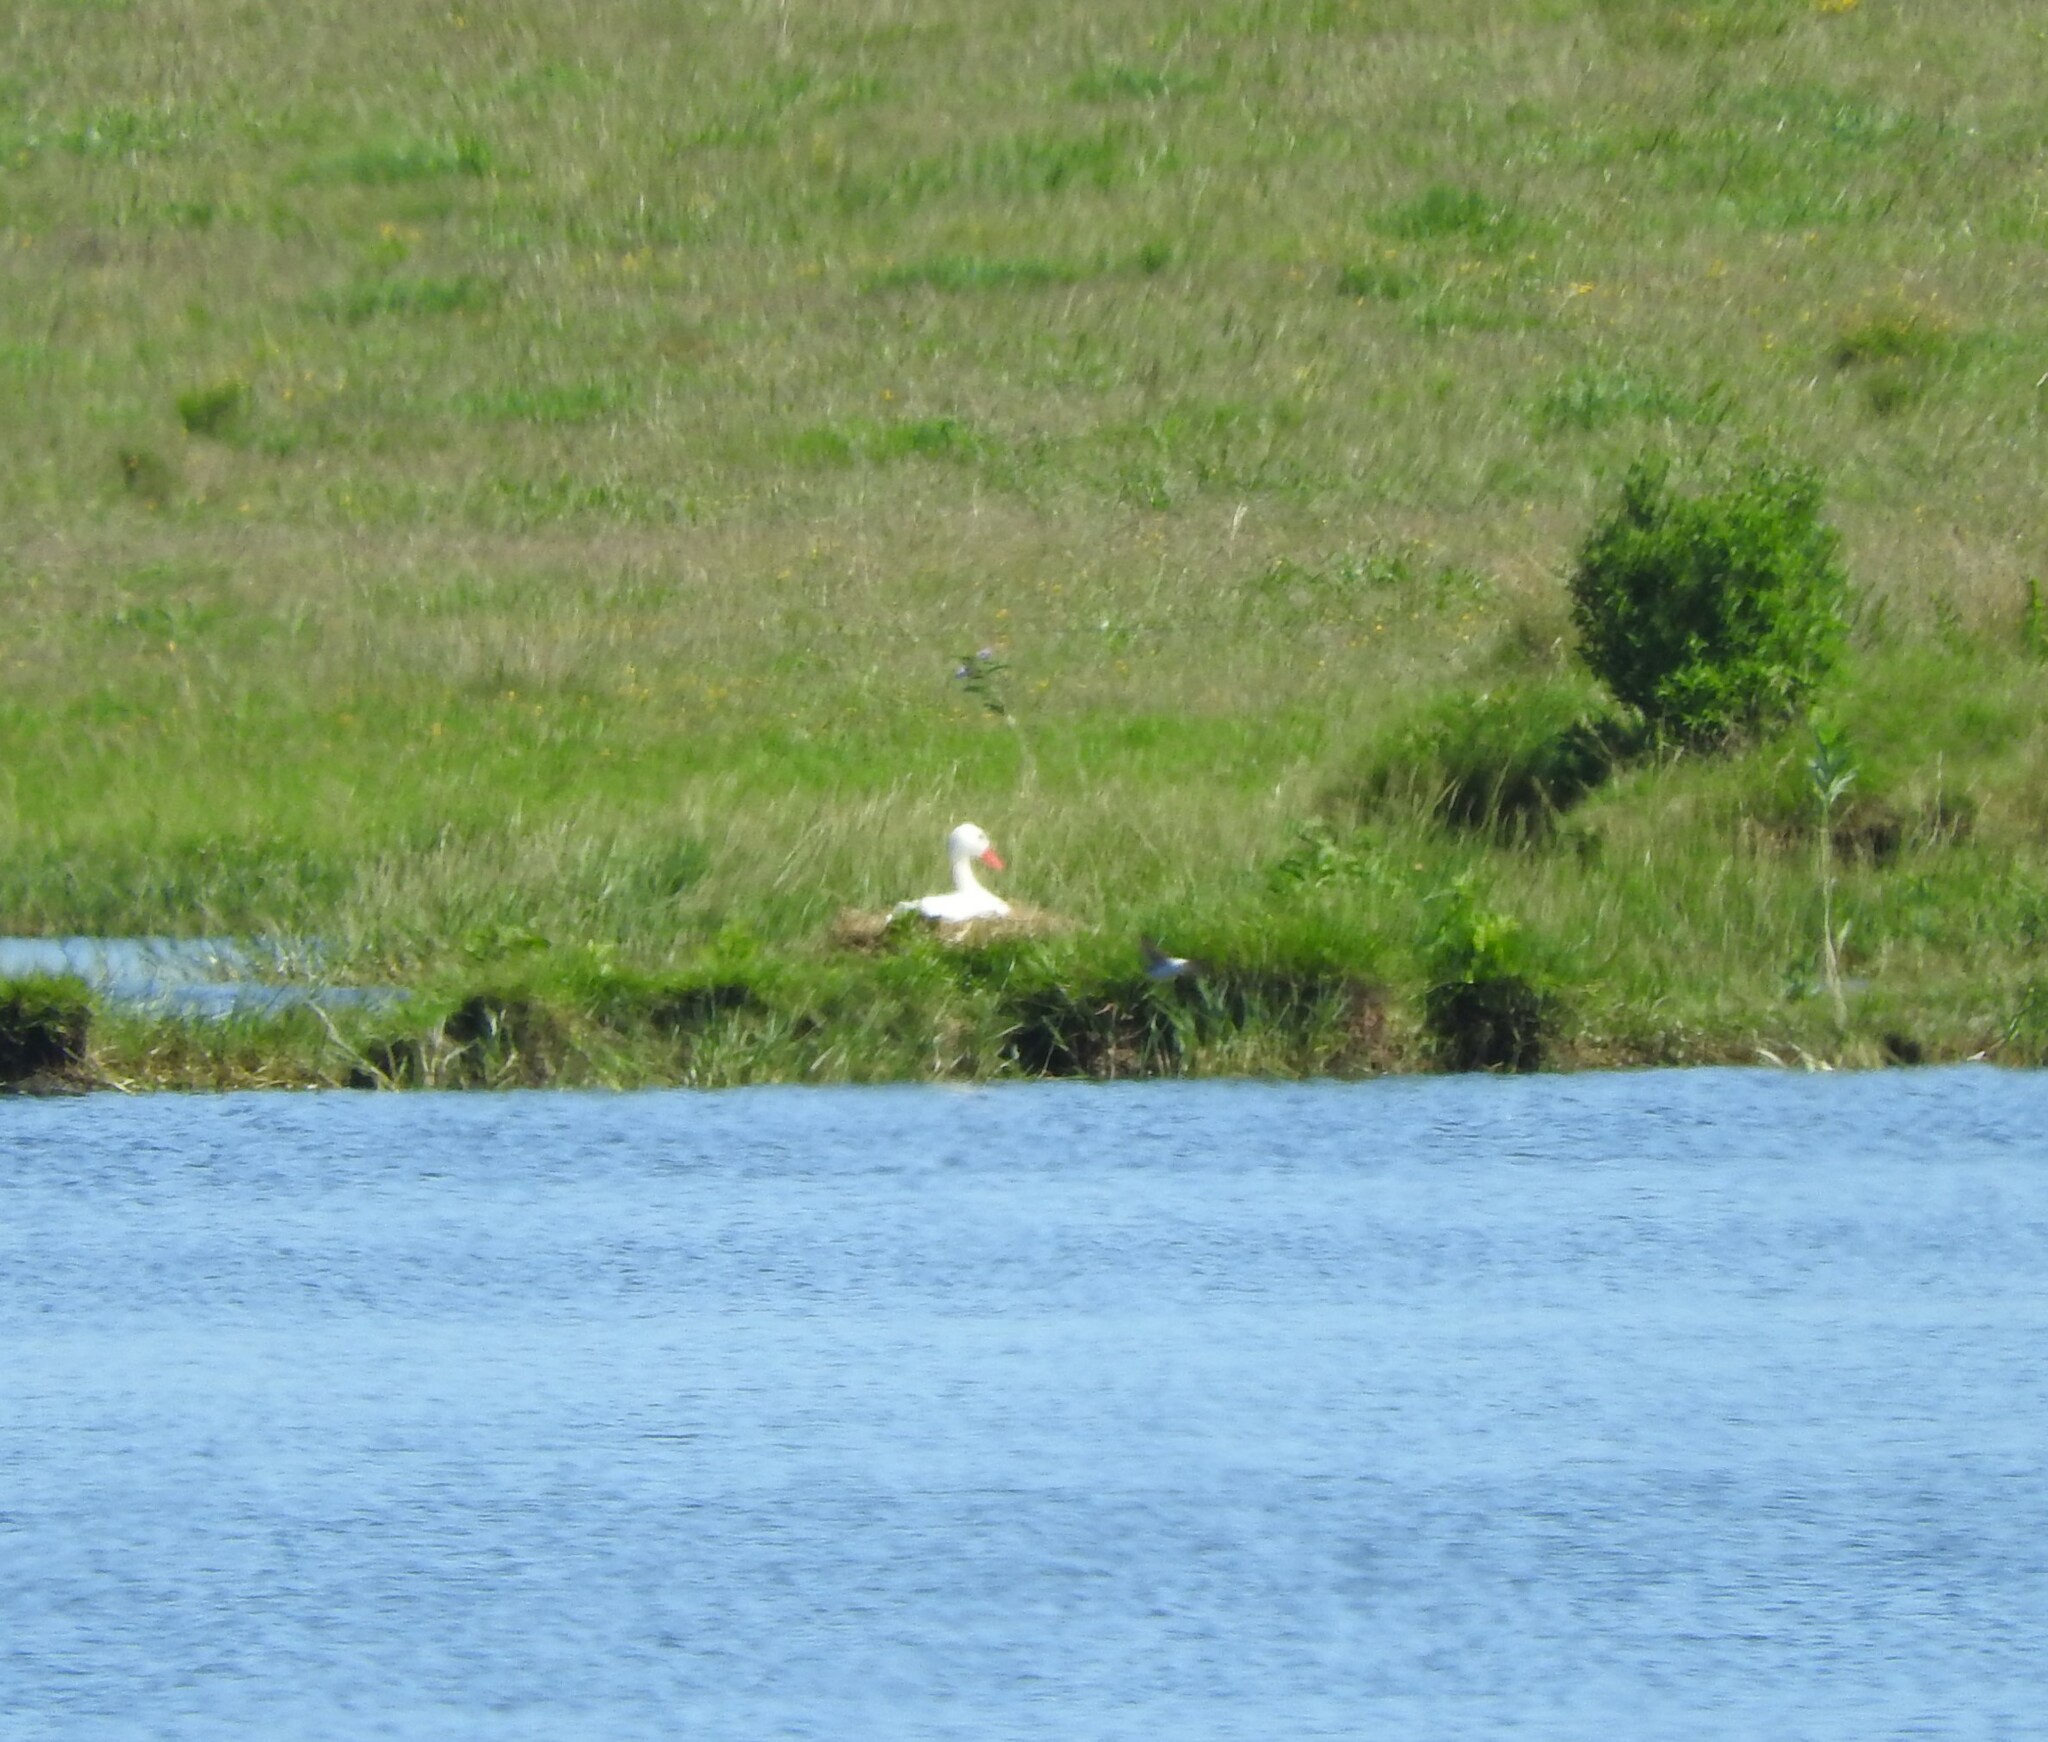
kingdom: Animalia
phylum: Chordata
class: Aves
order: Anseriformes
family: Anatidae
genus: Coscoroba
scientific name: Coscoroba coscoroba
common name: Coscoroba swan
